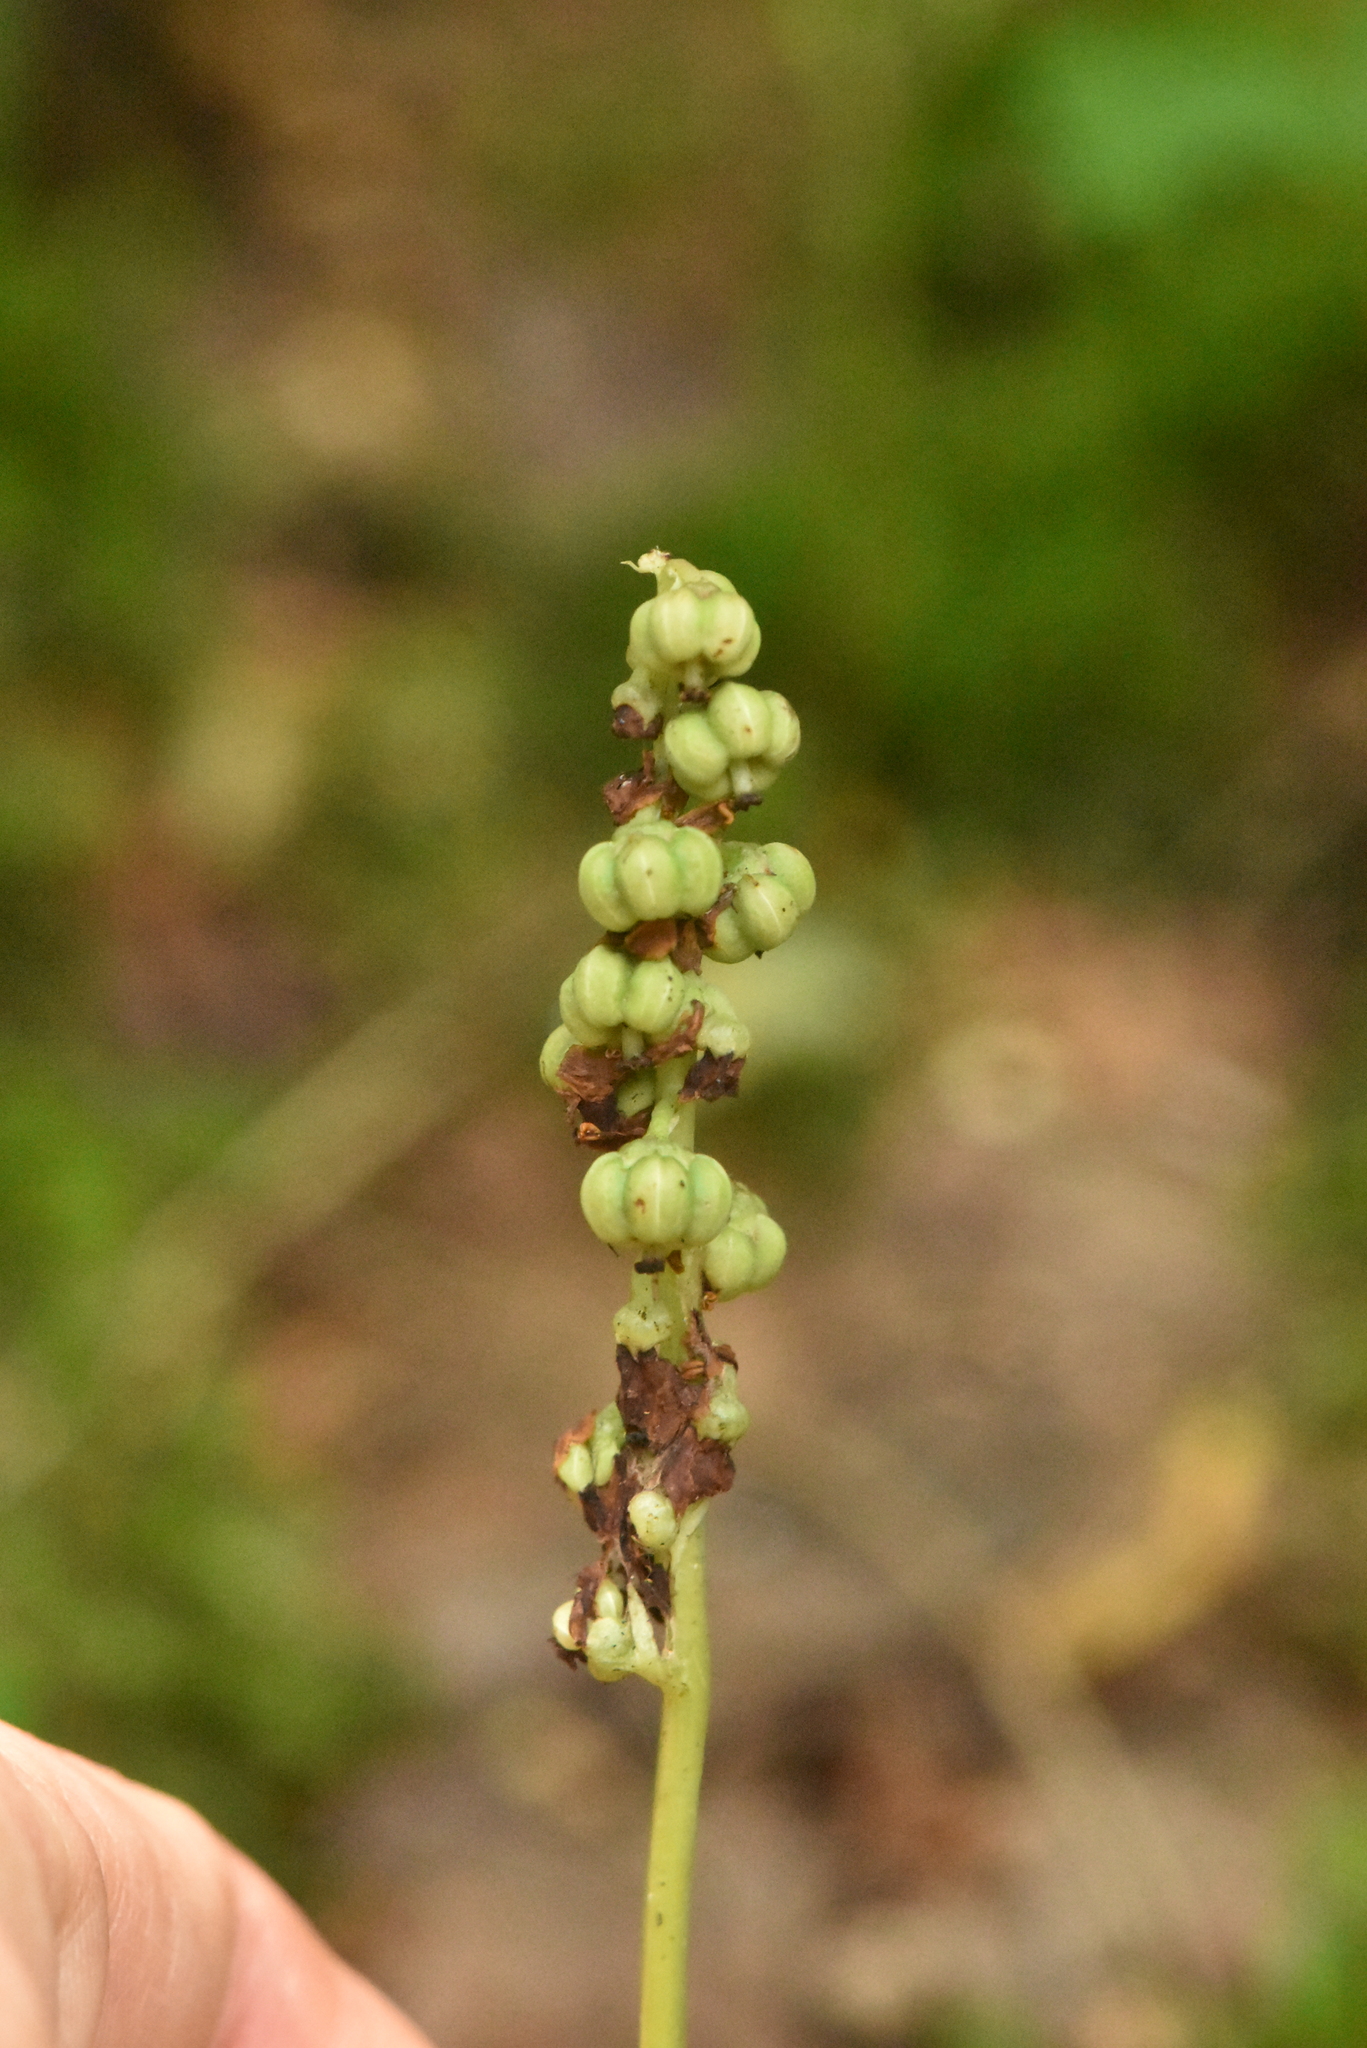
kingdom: Plantae
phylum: Tracheophyta
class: Magnoliopsida
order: Ericales
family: Ericaceae
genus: Pyrola
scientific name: Pyrola minor
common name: Common wintergreen
